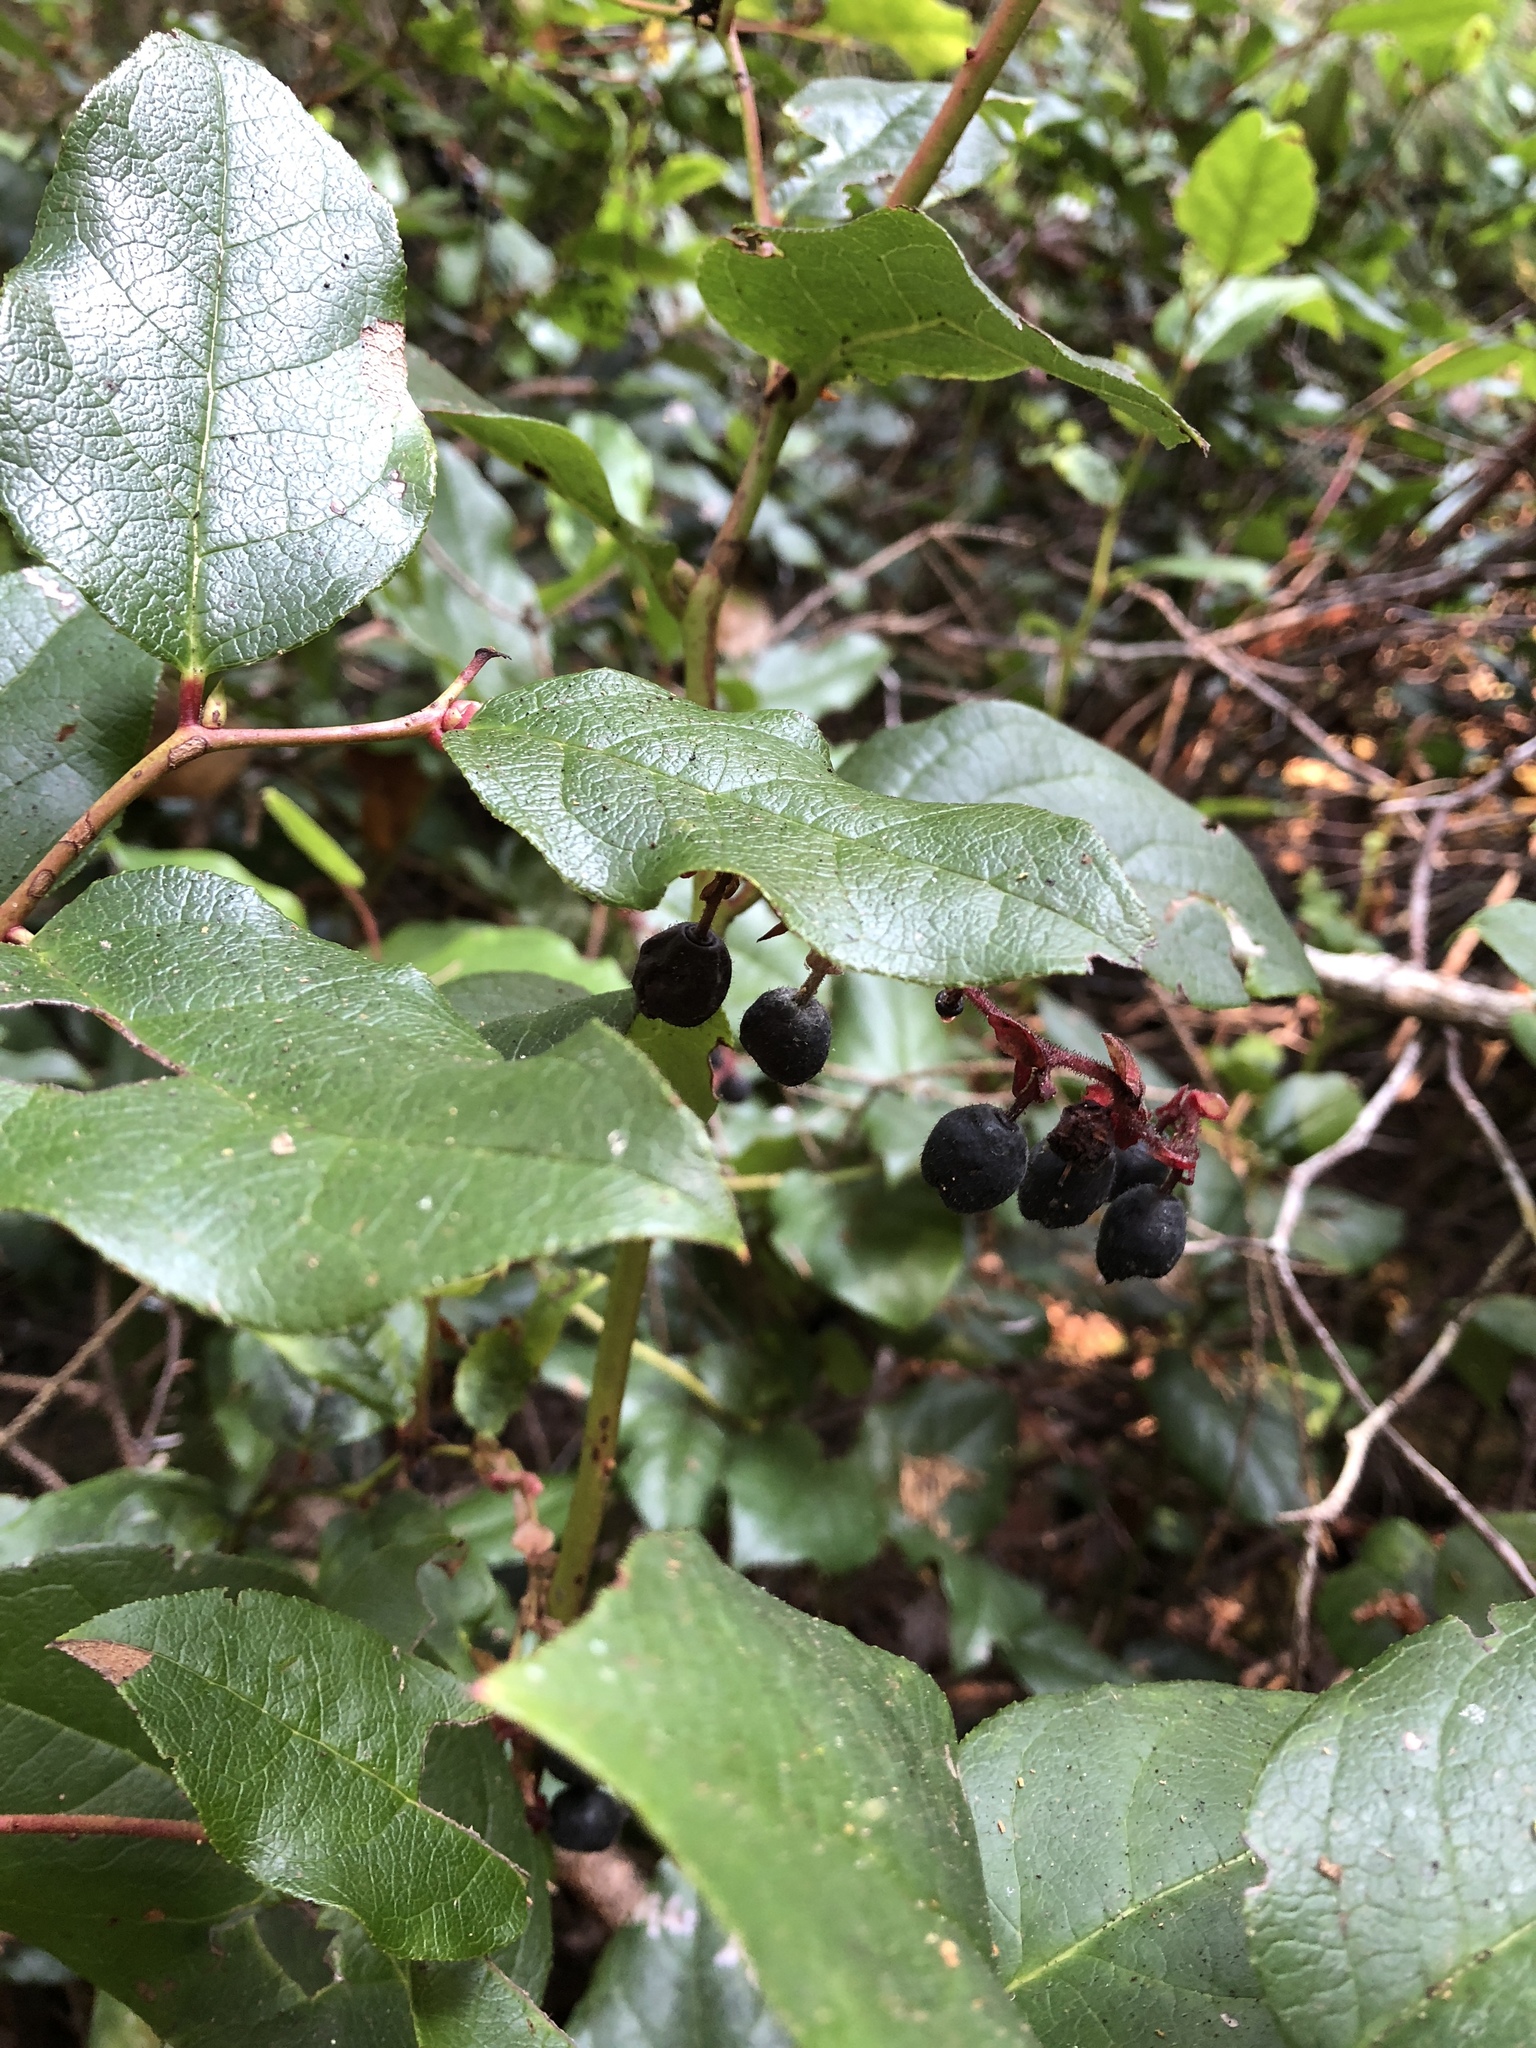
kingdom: Plantae
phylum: Tracheophyta
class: Magnoliopsida
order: Ericales
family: Ericaceae
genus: Gaultheria
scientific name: Gaultheria shallon
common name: Shallon
